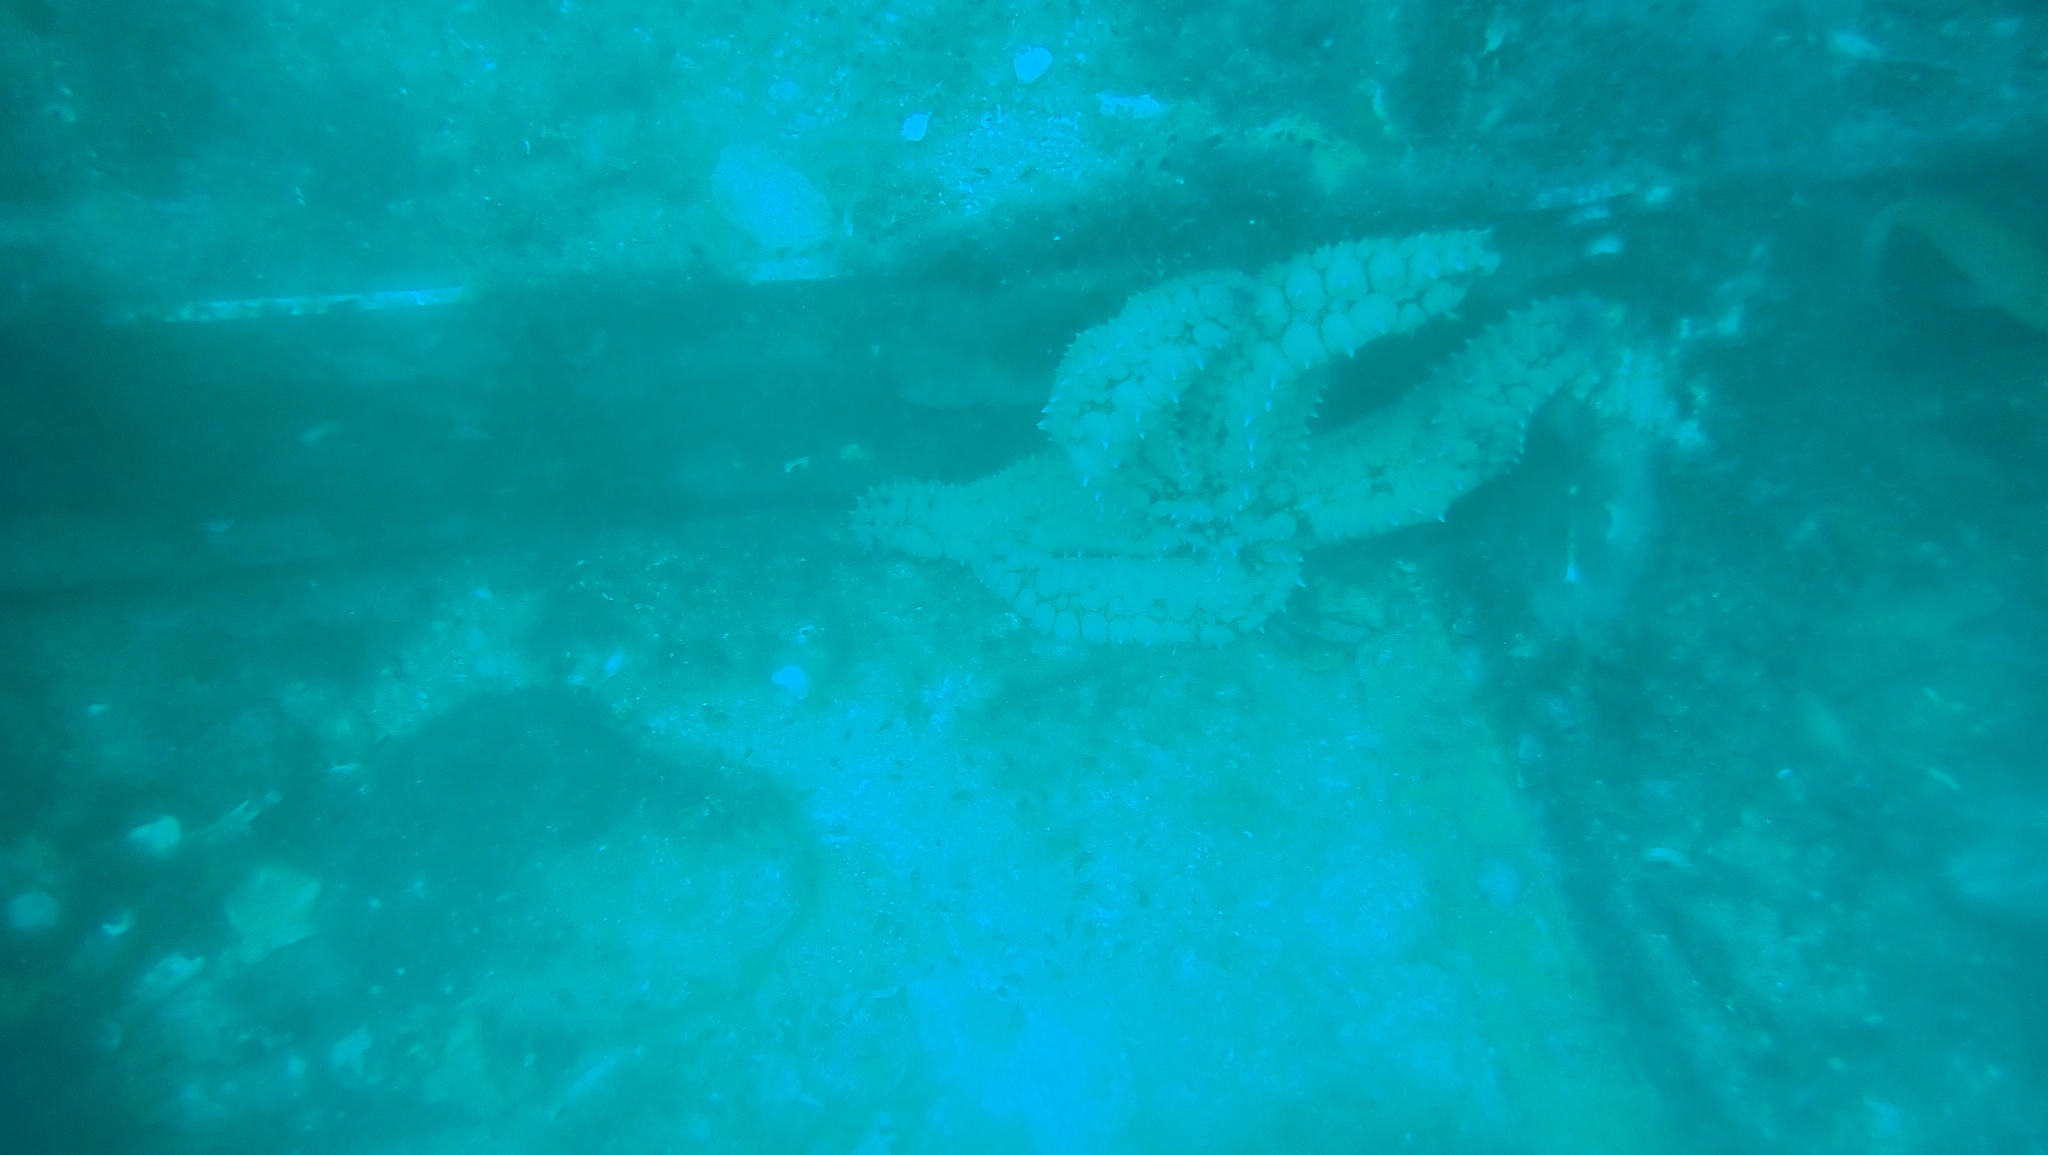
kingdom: Animalia
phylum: Echinodermata
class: Asteroidea
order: Forcipulatida
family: Asteriidae
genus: Marthasterias
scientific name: Marthasterias glacialis
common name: Spiny starfish
